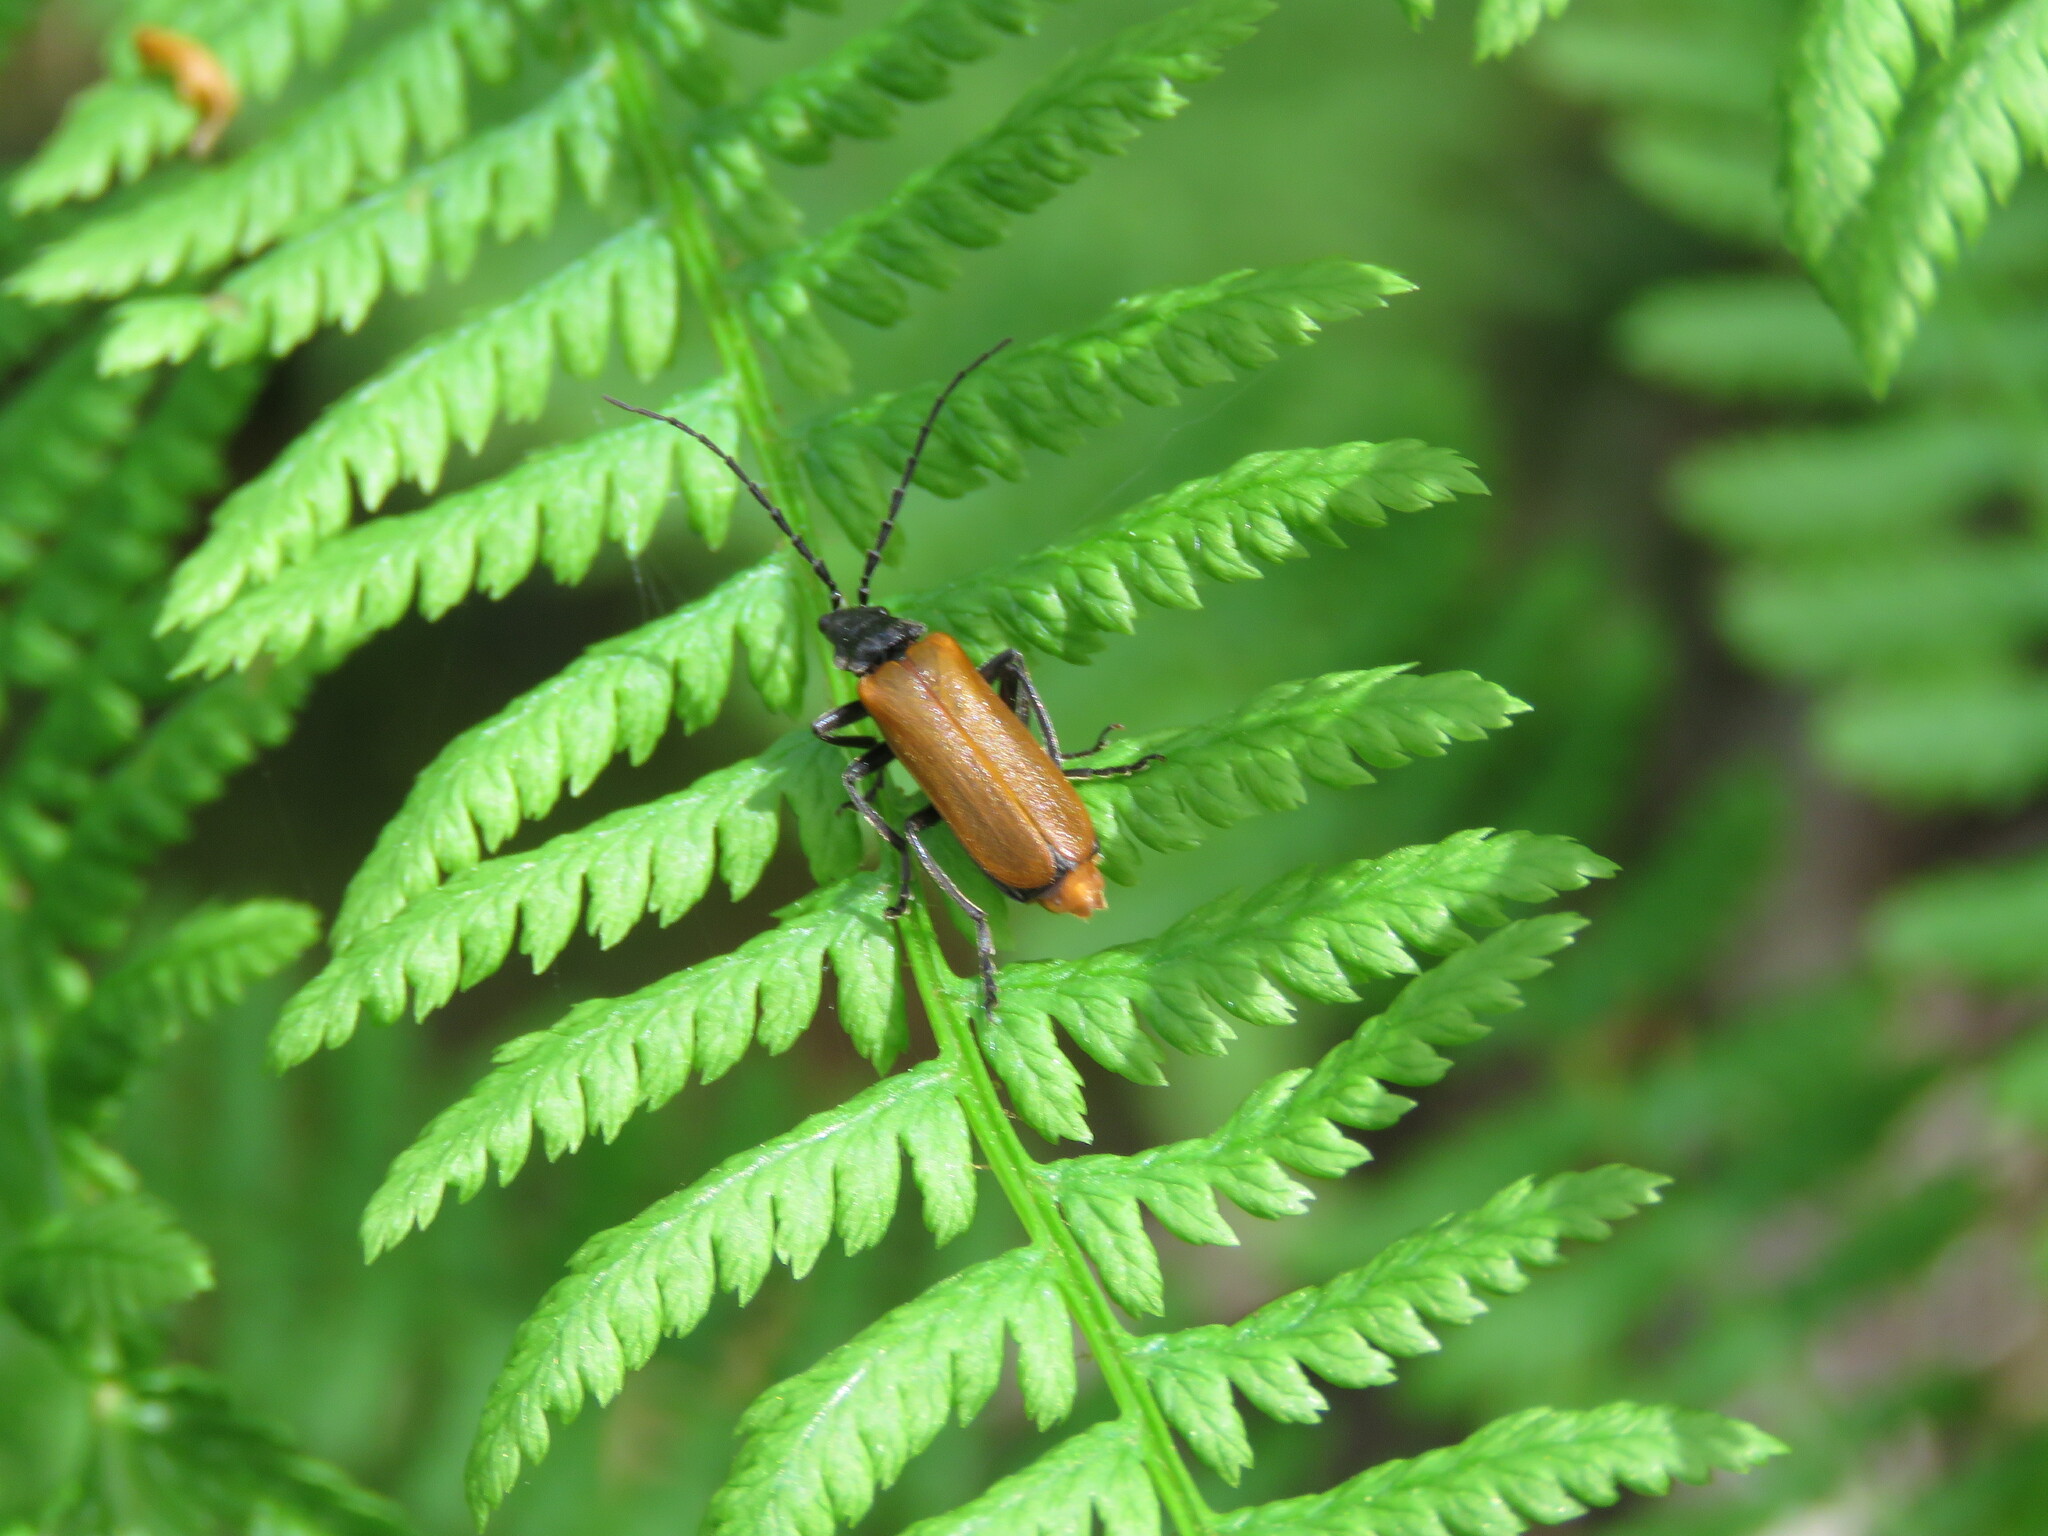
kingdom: Animalia
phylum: Arthropoda
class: Insecta
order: Coleoptera
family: Cantharidae
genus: Cantharis
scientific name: Cantharis palliata
